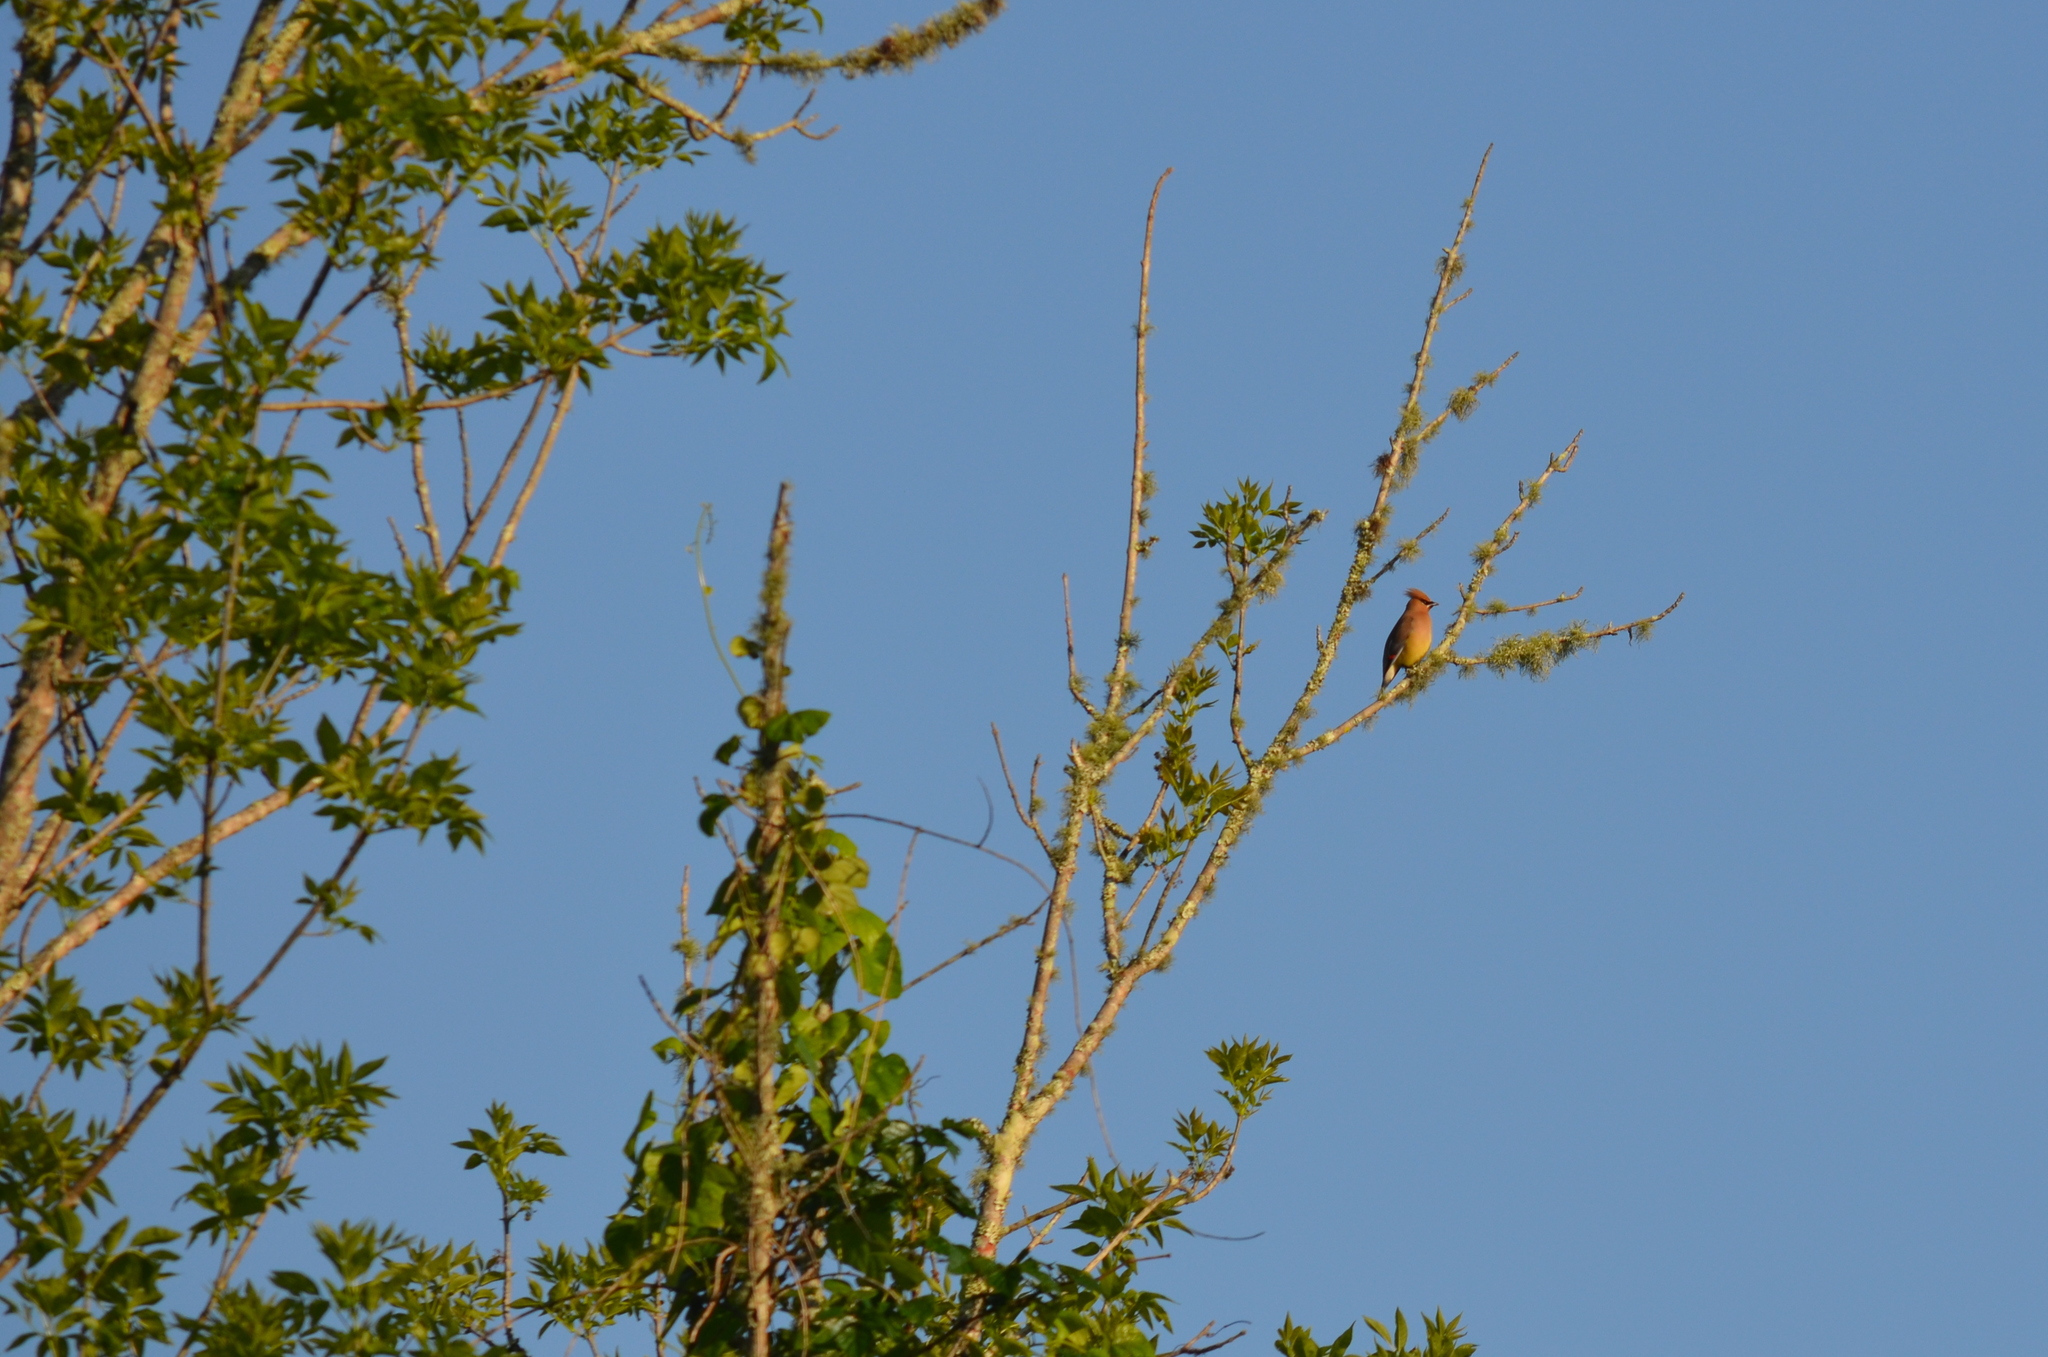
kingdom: Animalia
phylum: Chordata
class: Aves
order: Passeriformes
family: Bombycillidae
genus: Bombycilla
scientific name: Bombycilla cedrorum
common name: Cedar waxwing
